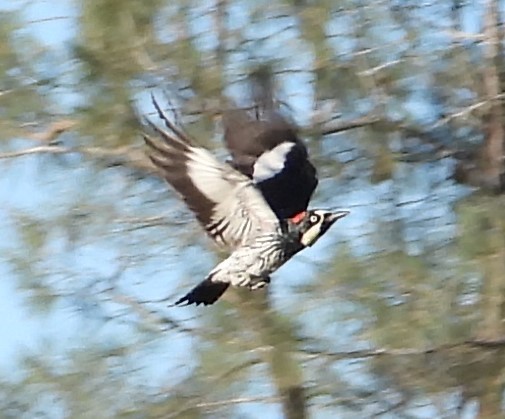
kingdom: Animalia
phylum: Chordata
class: Aves
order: Piciformes
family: Picidae
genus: Melanerpes
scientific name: Melanerpes formicivorus
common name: Acorn woodpecker
